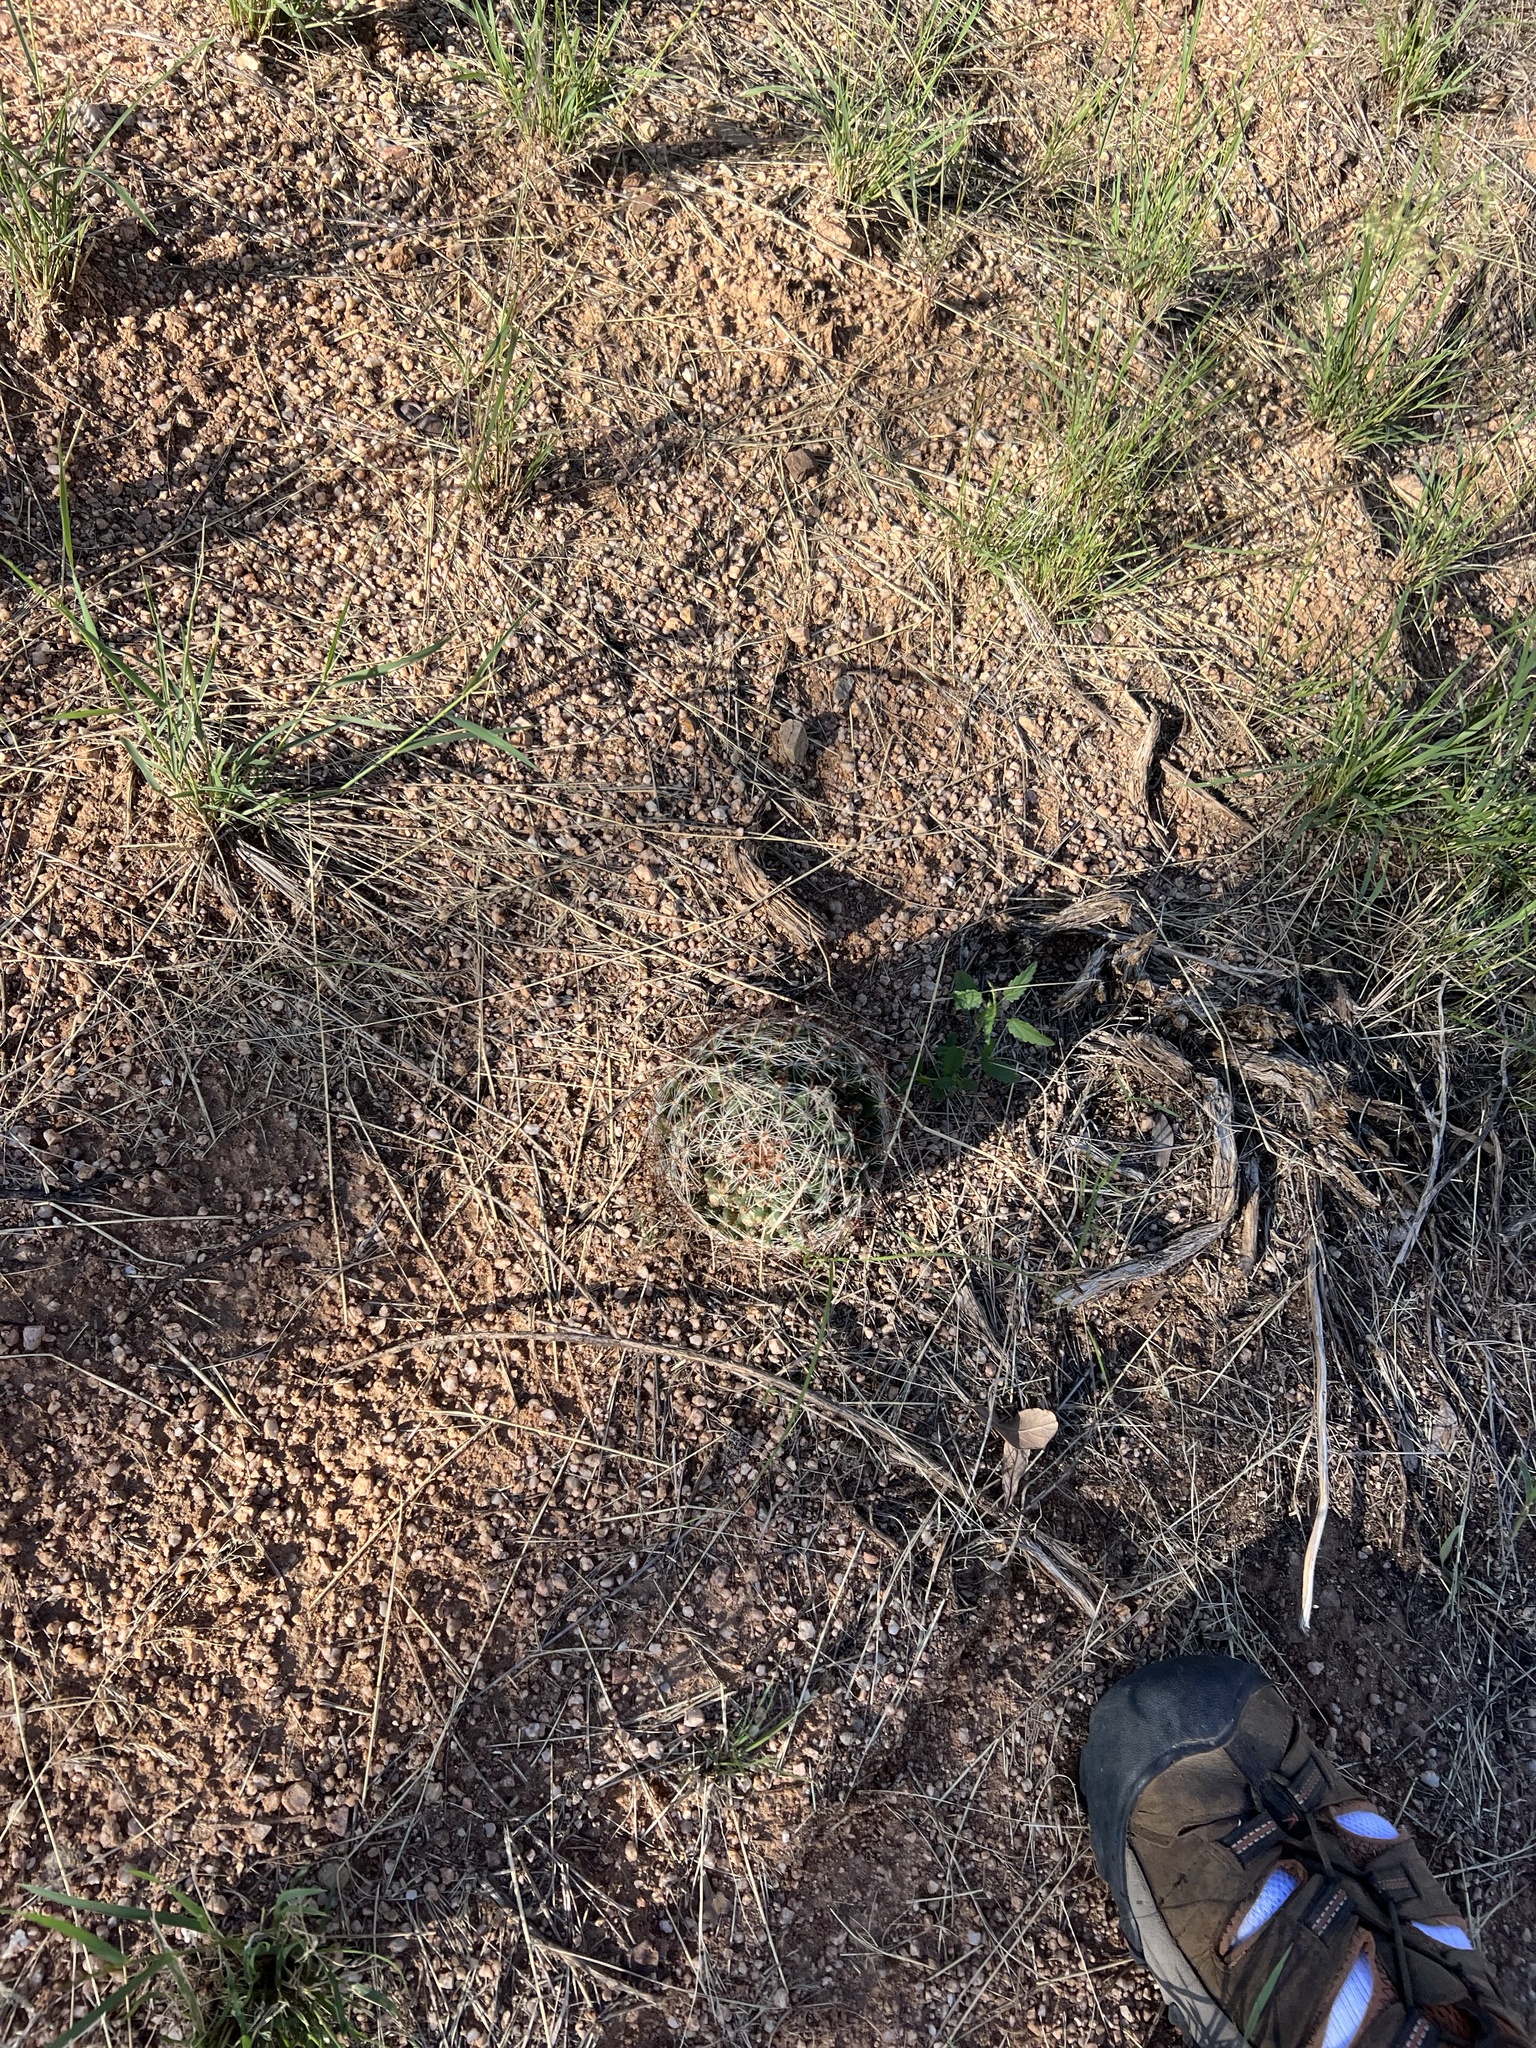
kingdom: Plantae
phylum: Tracheophyta
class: Magnoliopsida
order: Caryophyllales
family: Cactaceae
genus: Cochemiea
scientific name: Cochemiea wrightii
